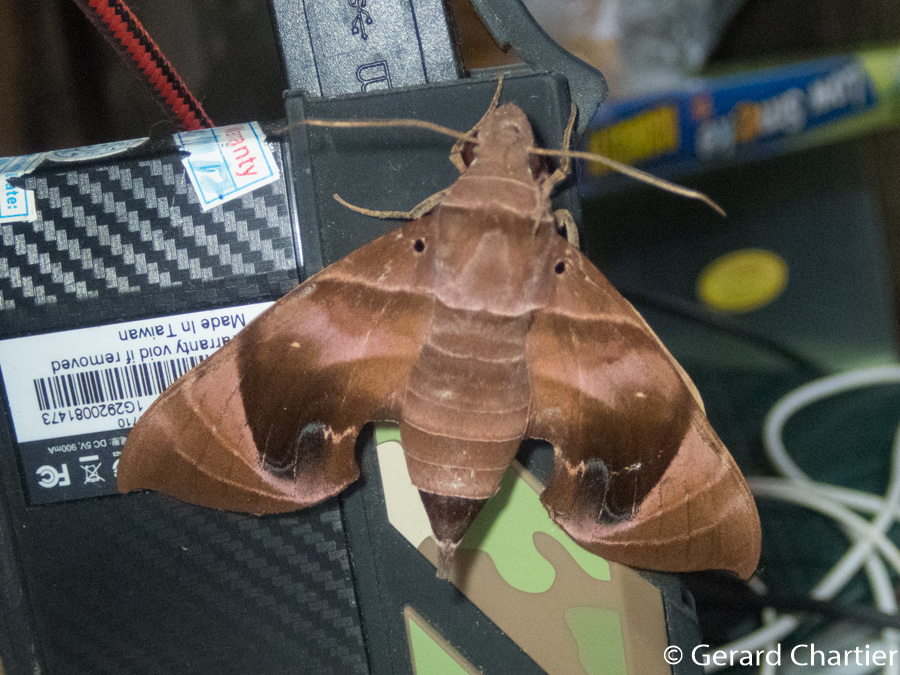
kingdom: Animalia
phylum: Arthropoda
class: Insecta
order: Lepidoptera
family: Sphingidae
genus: Eurypteryx
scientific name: Eurypteryx bhaga
